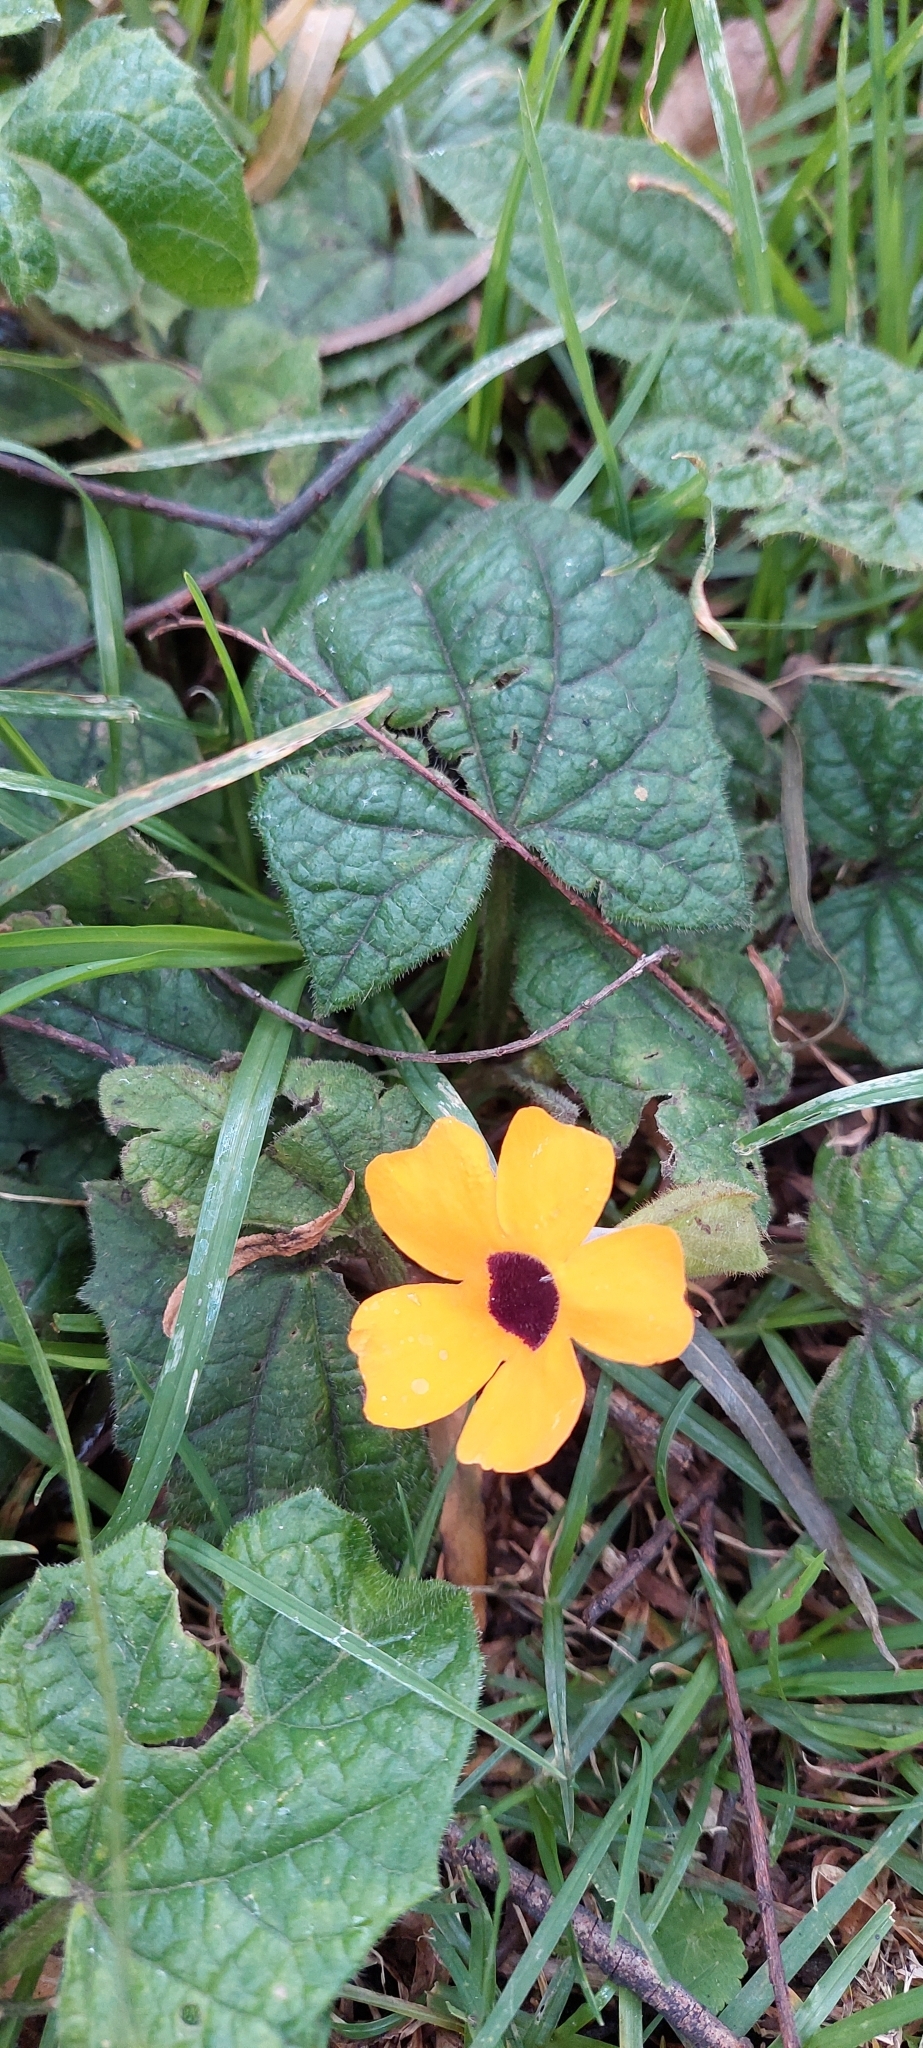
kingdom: Plantae
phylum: Tracheophyta
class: Magnoliopsida
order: Lamiales
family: Acanthaceae
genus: Thunbergia
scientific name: Thunbergia alata
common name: Blackeyed susan vine
